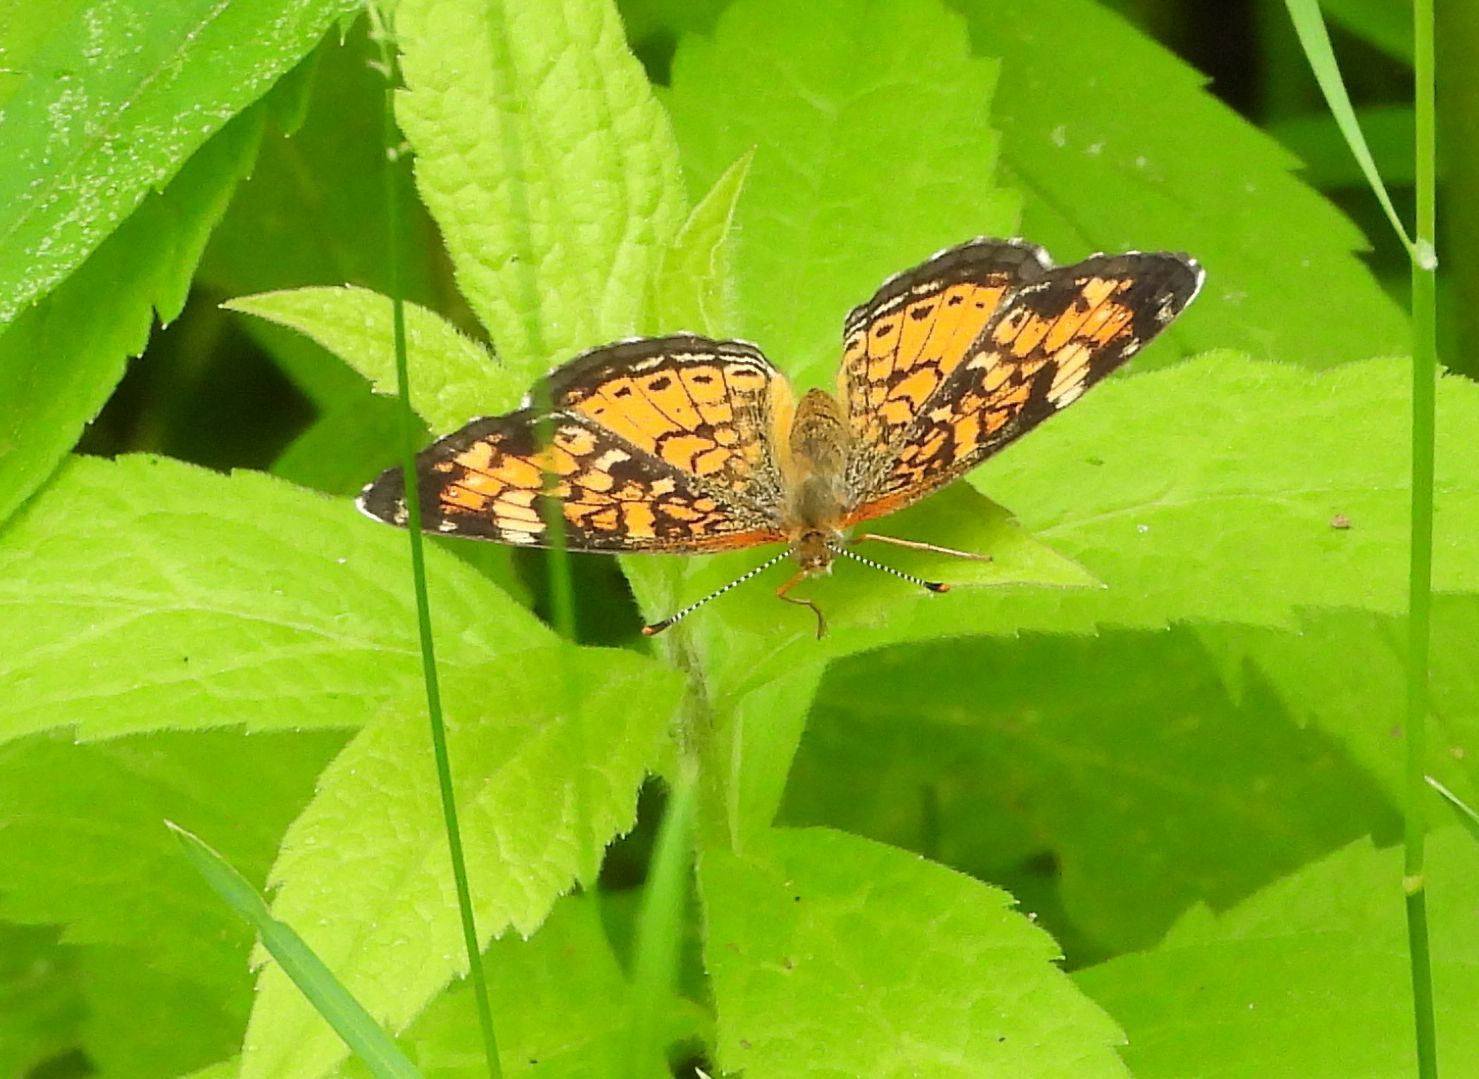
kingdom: Animalia
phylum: Arthropoda
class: Insecta
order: Lepidoptera
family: Nymphalidae
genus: Phyciodes
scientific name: Phyciodes tharos
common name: Pearl crescent
